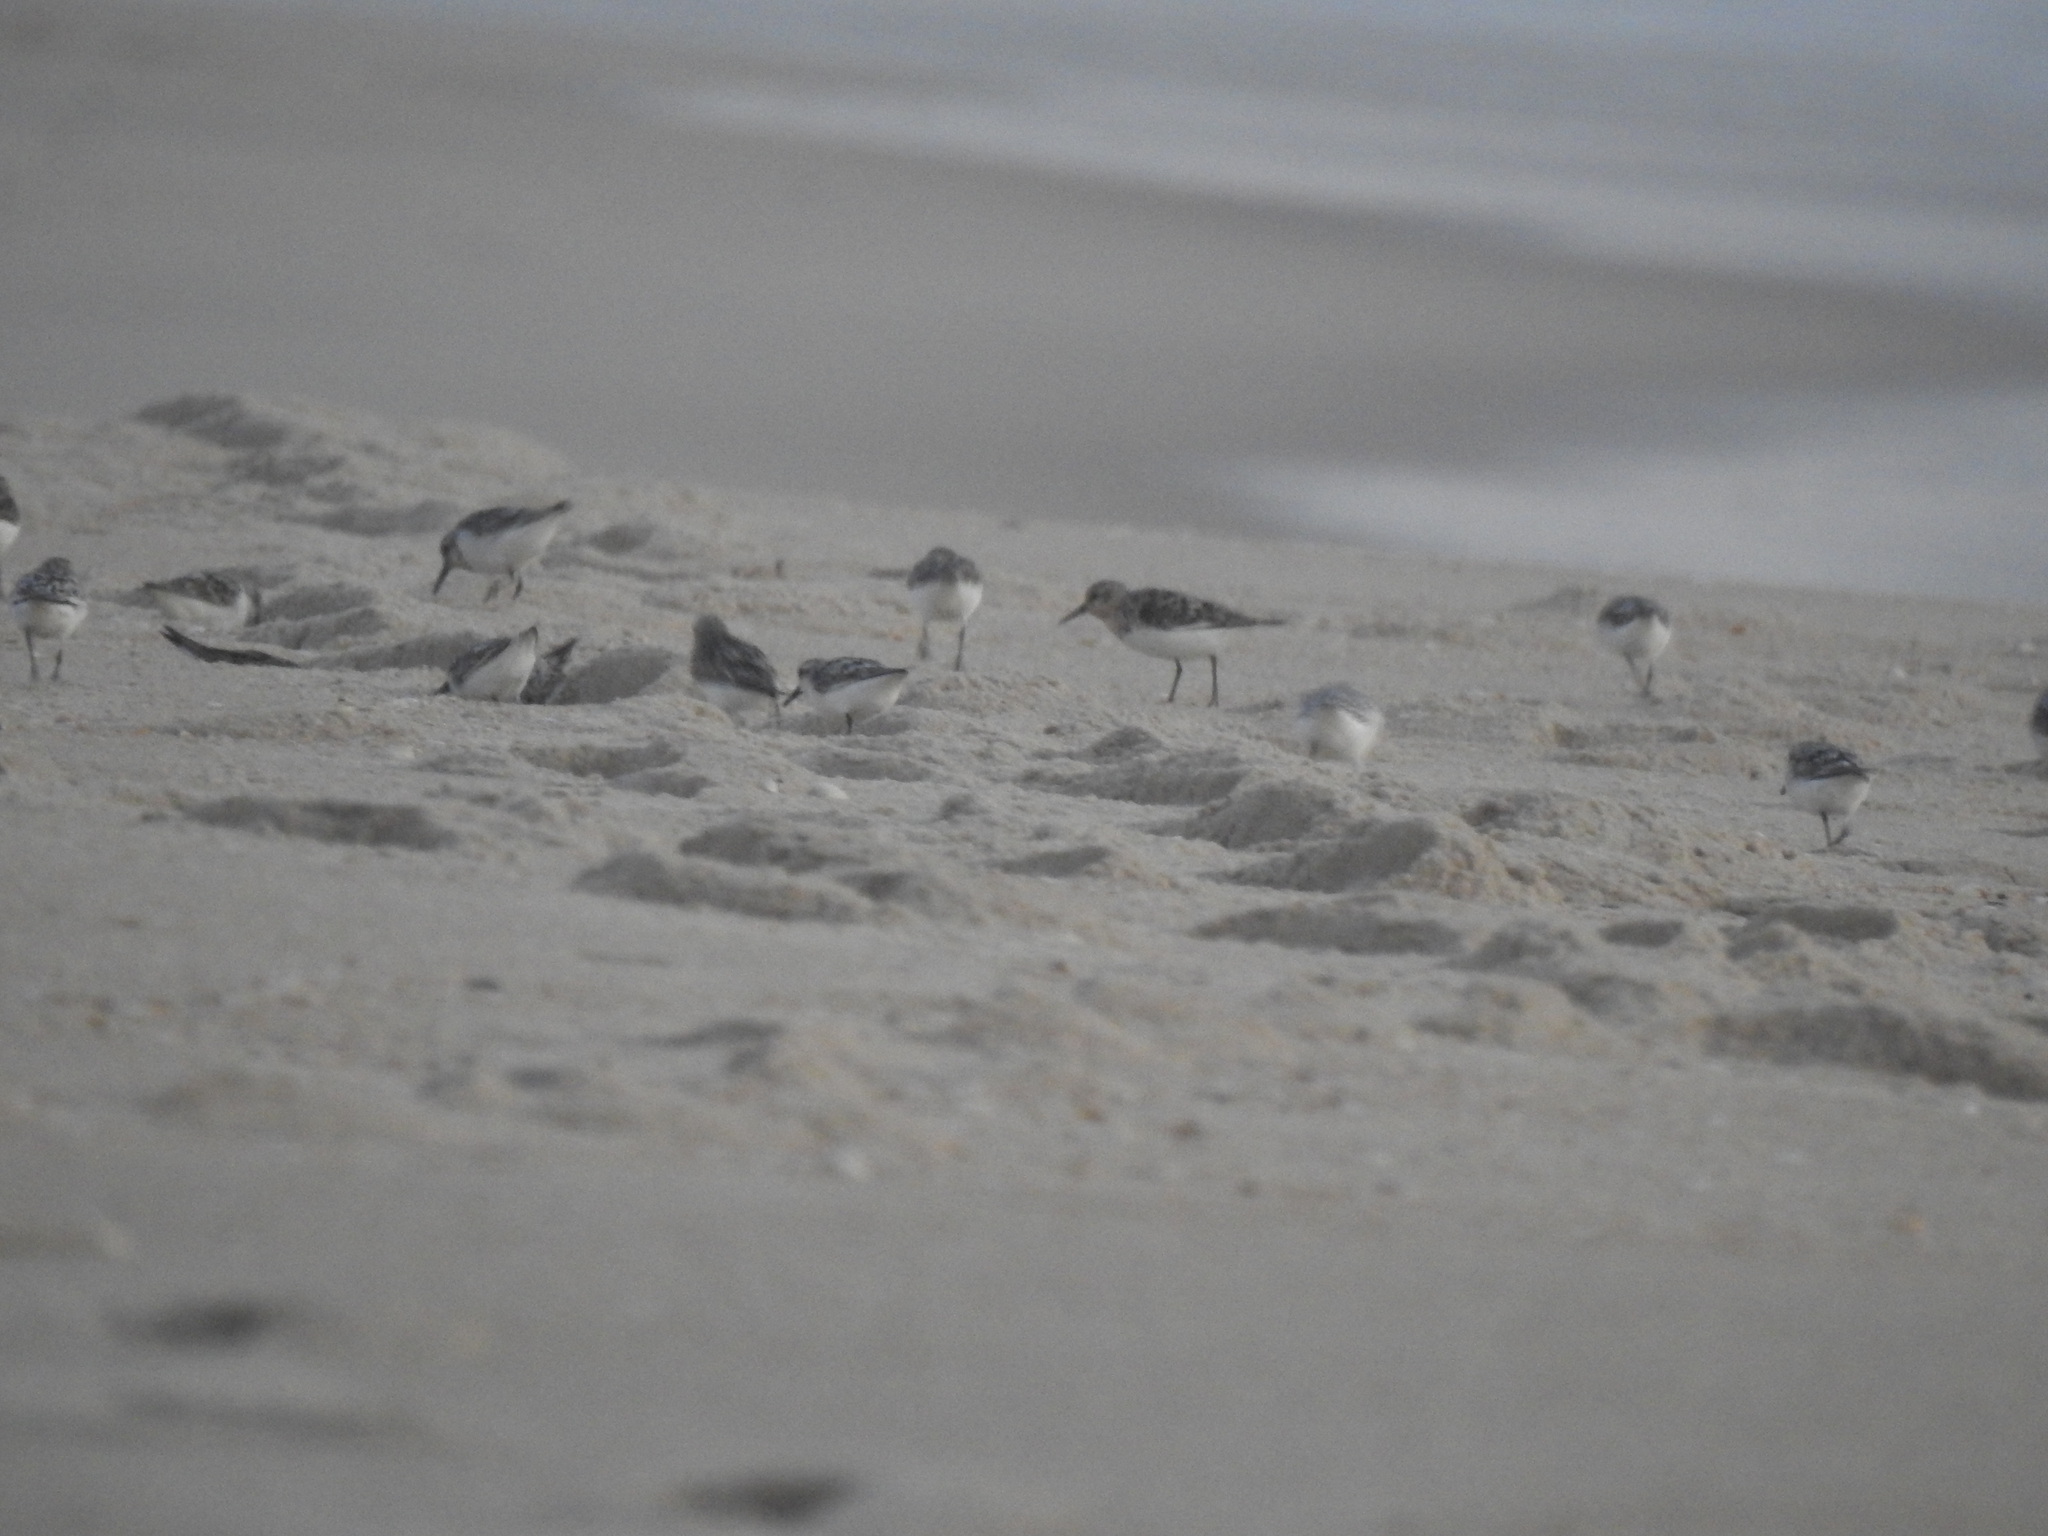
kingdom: Animalia
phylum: Chordata
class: Aves
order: Charadriiformes
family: Scolopacidae
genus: Calidris
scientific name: Calidris alba
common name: Sanderling
